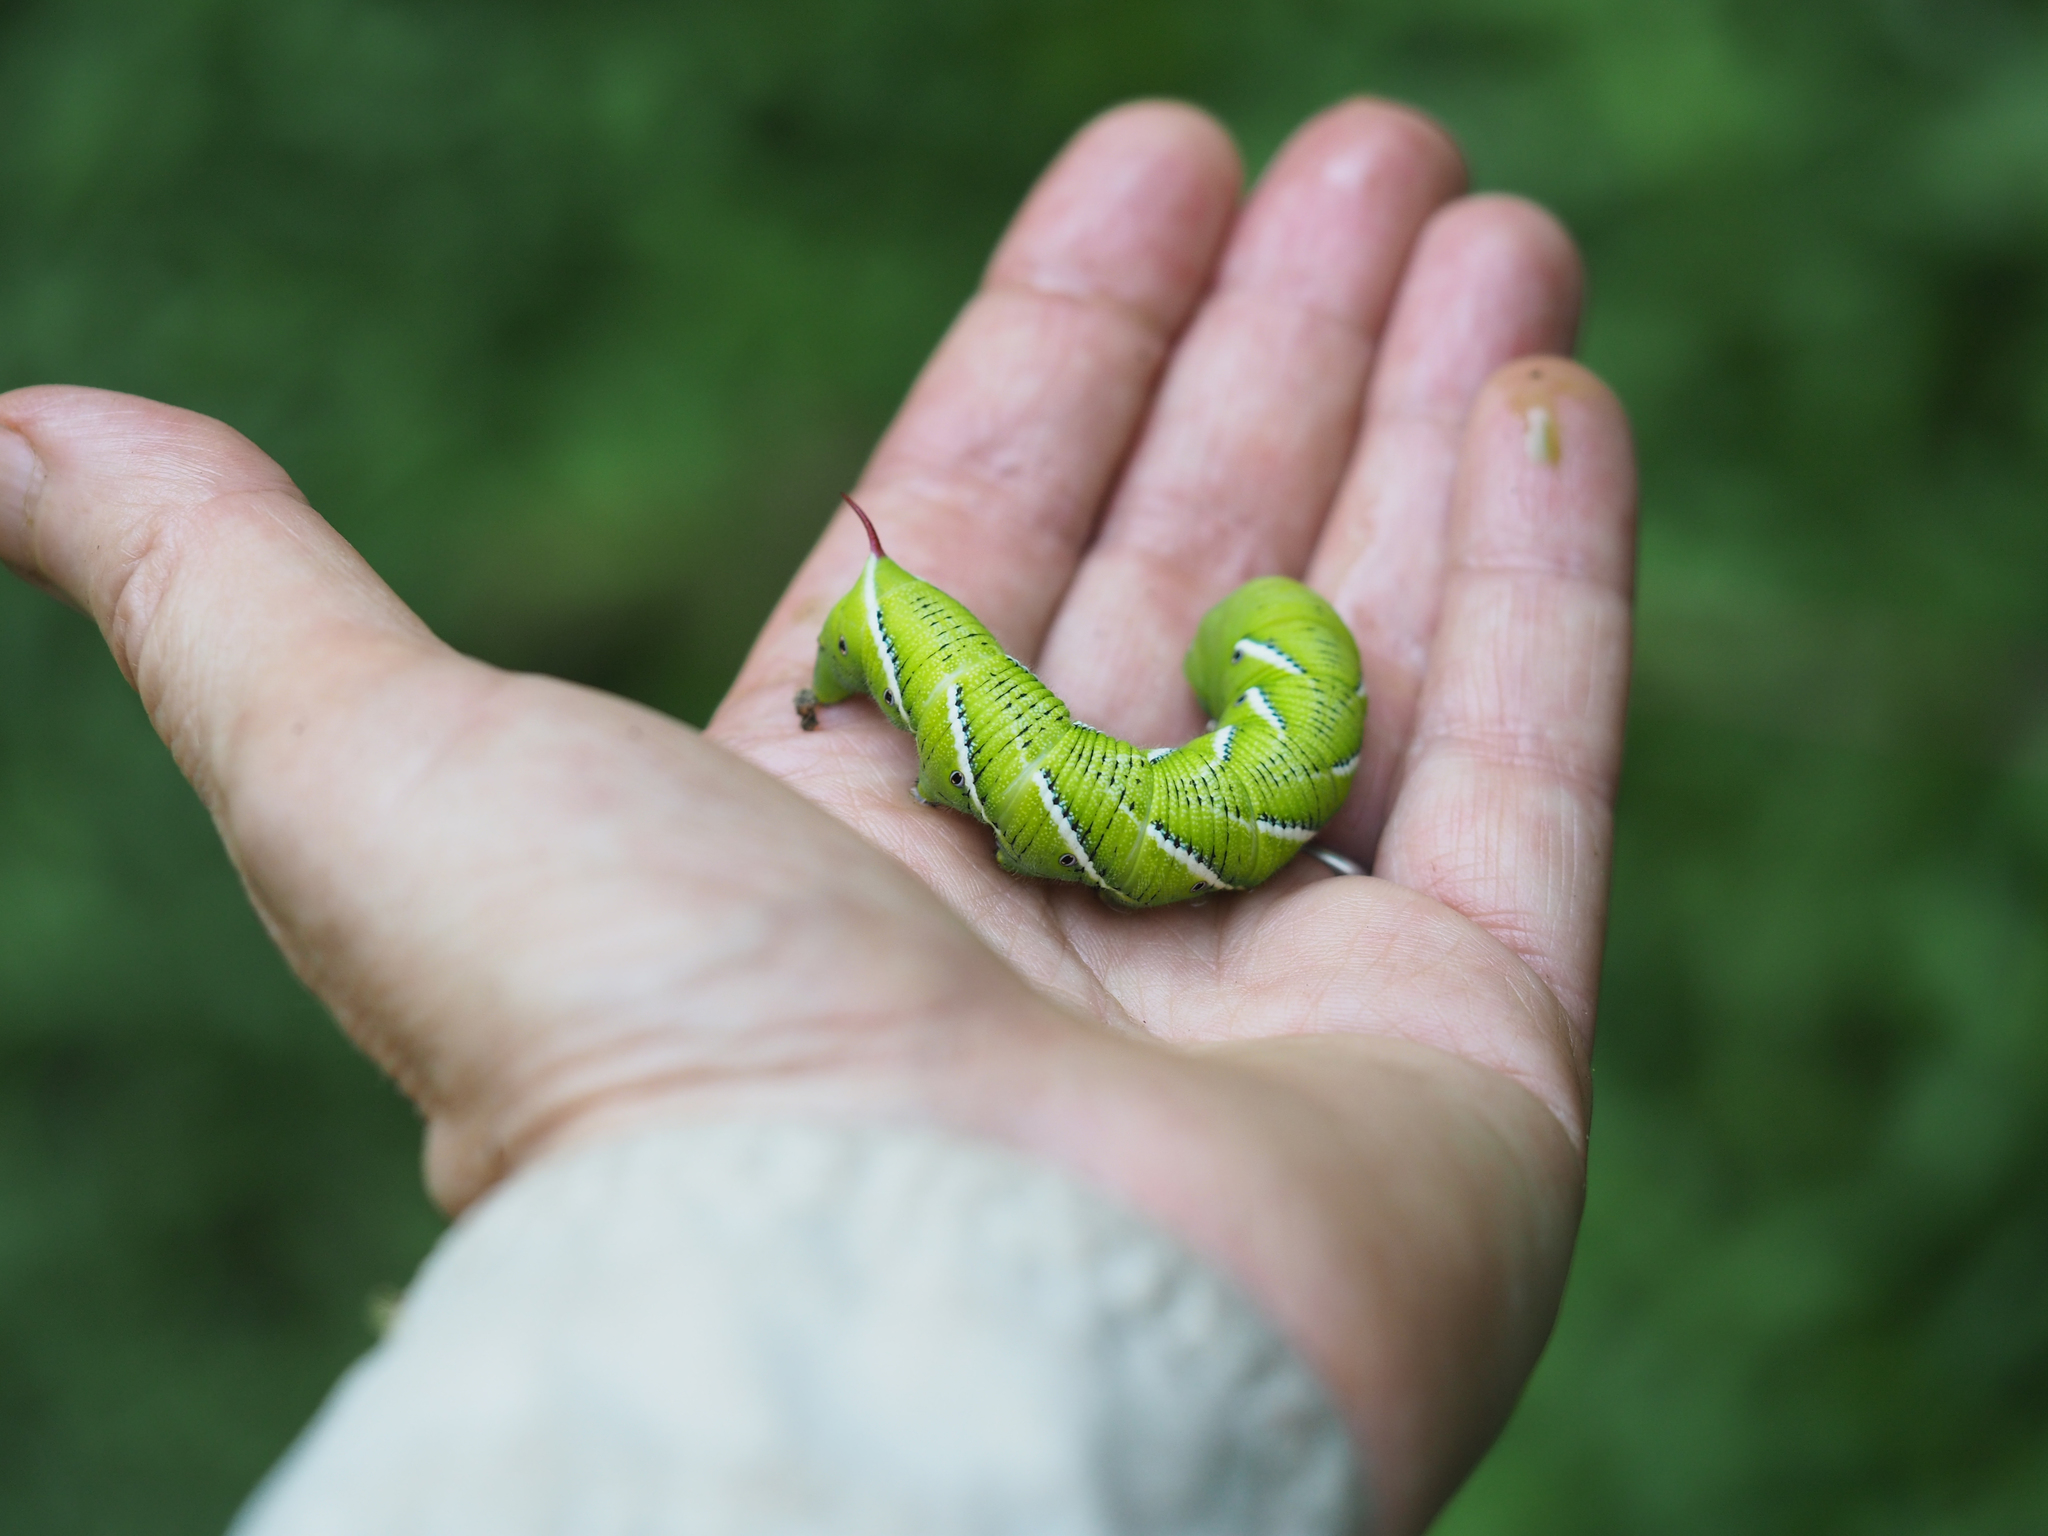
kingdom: Animalia
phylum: Arthropoda
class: Insecta
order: Lepidoptera
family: Sphingidae
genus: Manduca
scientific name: Manduca sexta
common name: Carolina sphinx
